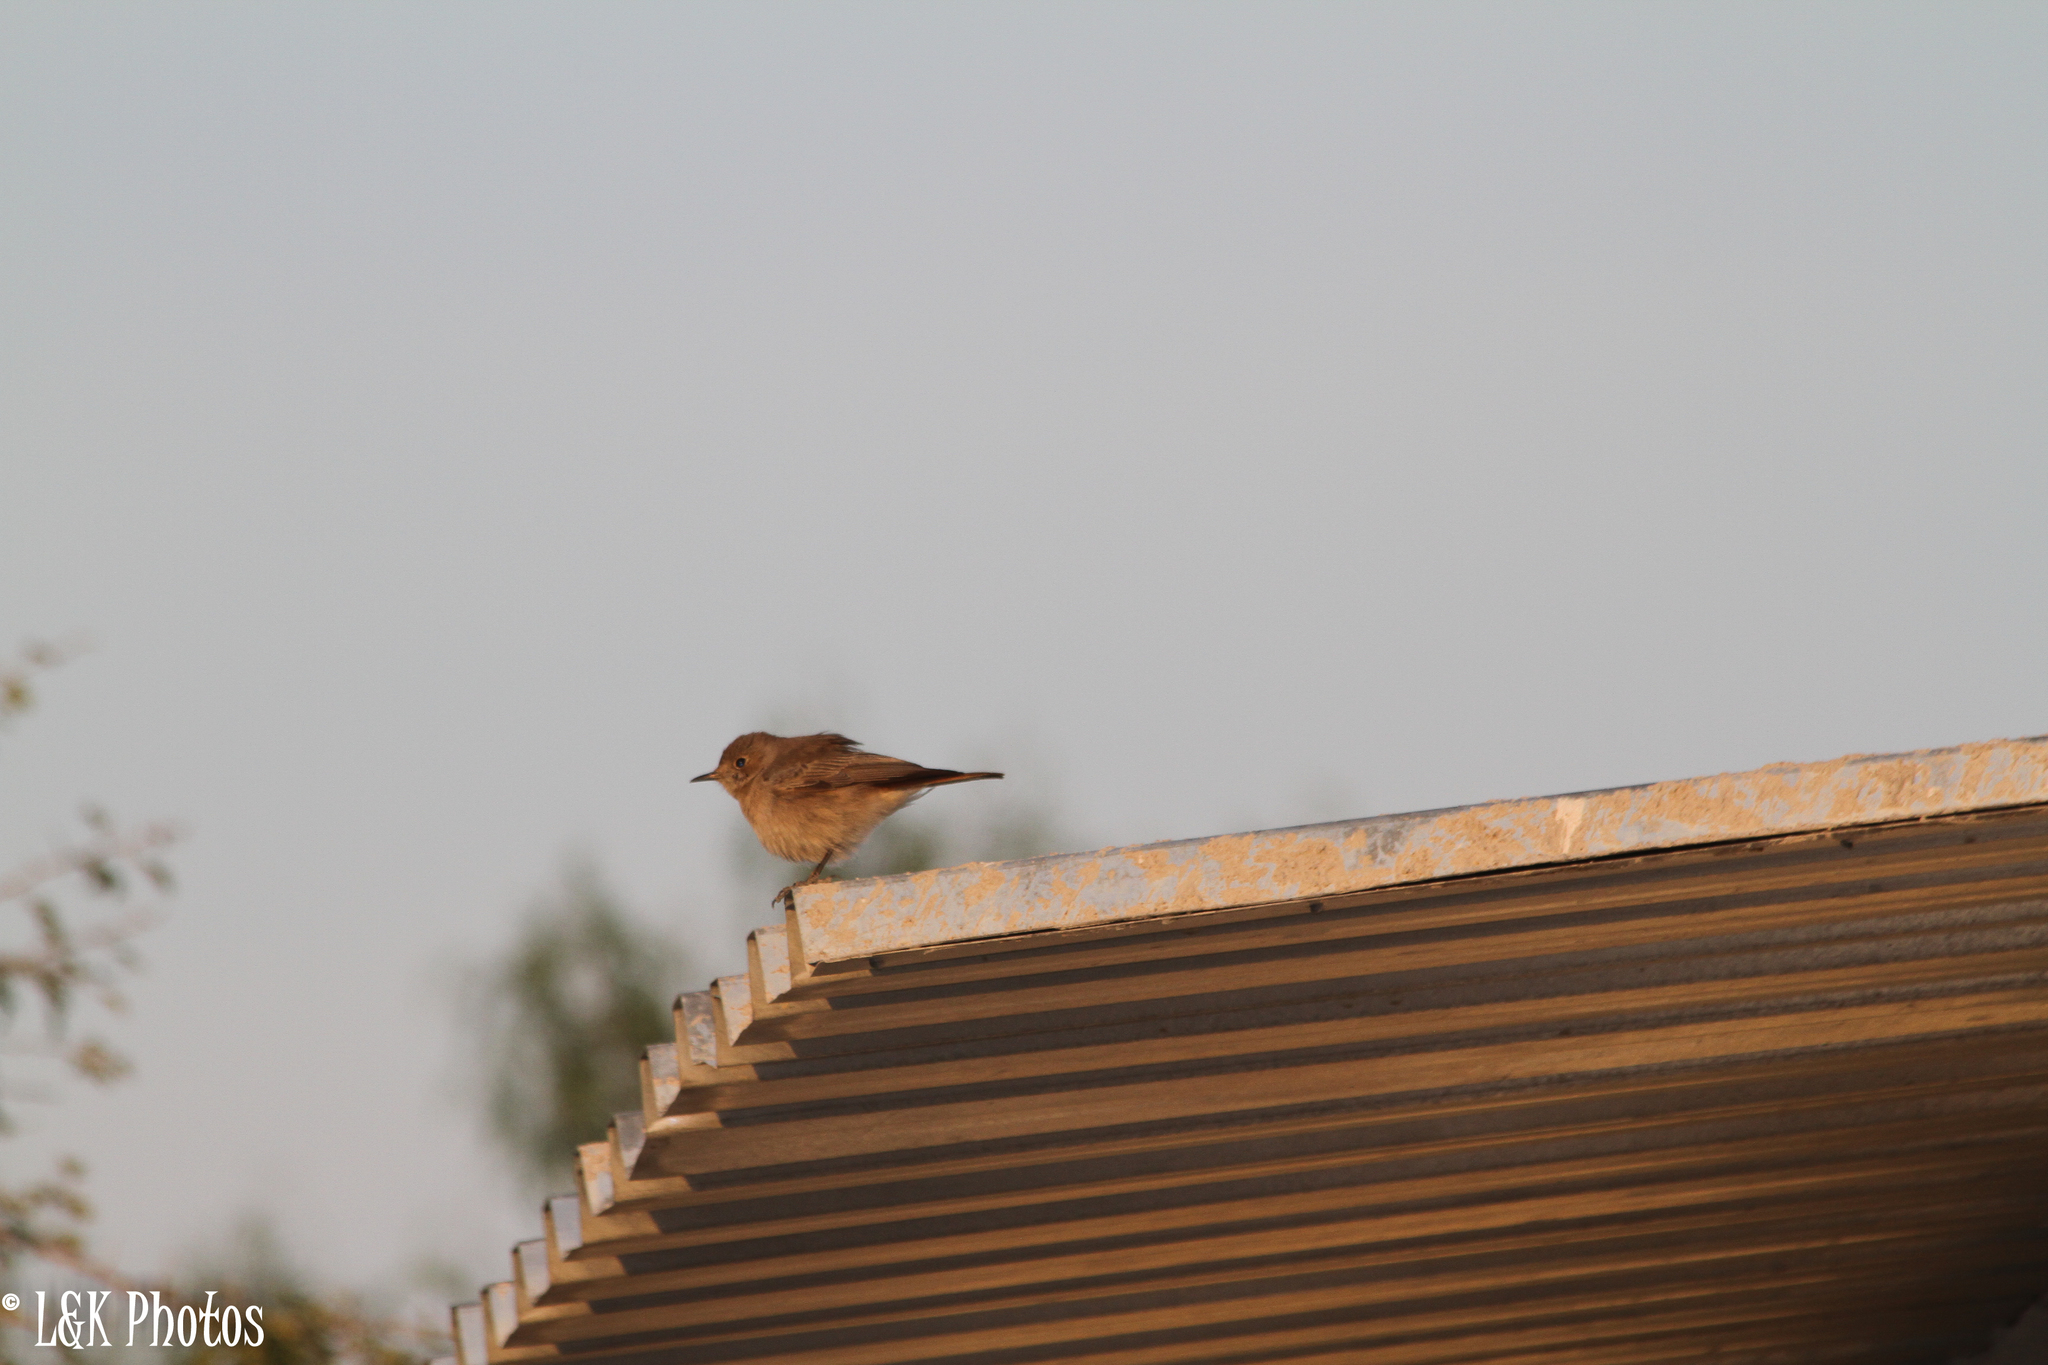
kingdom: Animalia
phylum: Chordata
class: Aves
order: Passeriformes
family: Muscicapidae
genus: Oenanthe
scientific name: Oenanthe familiaris
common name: Familiar chat
